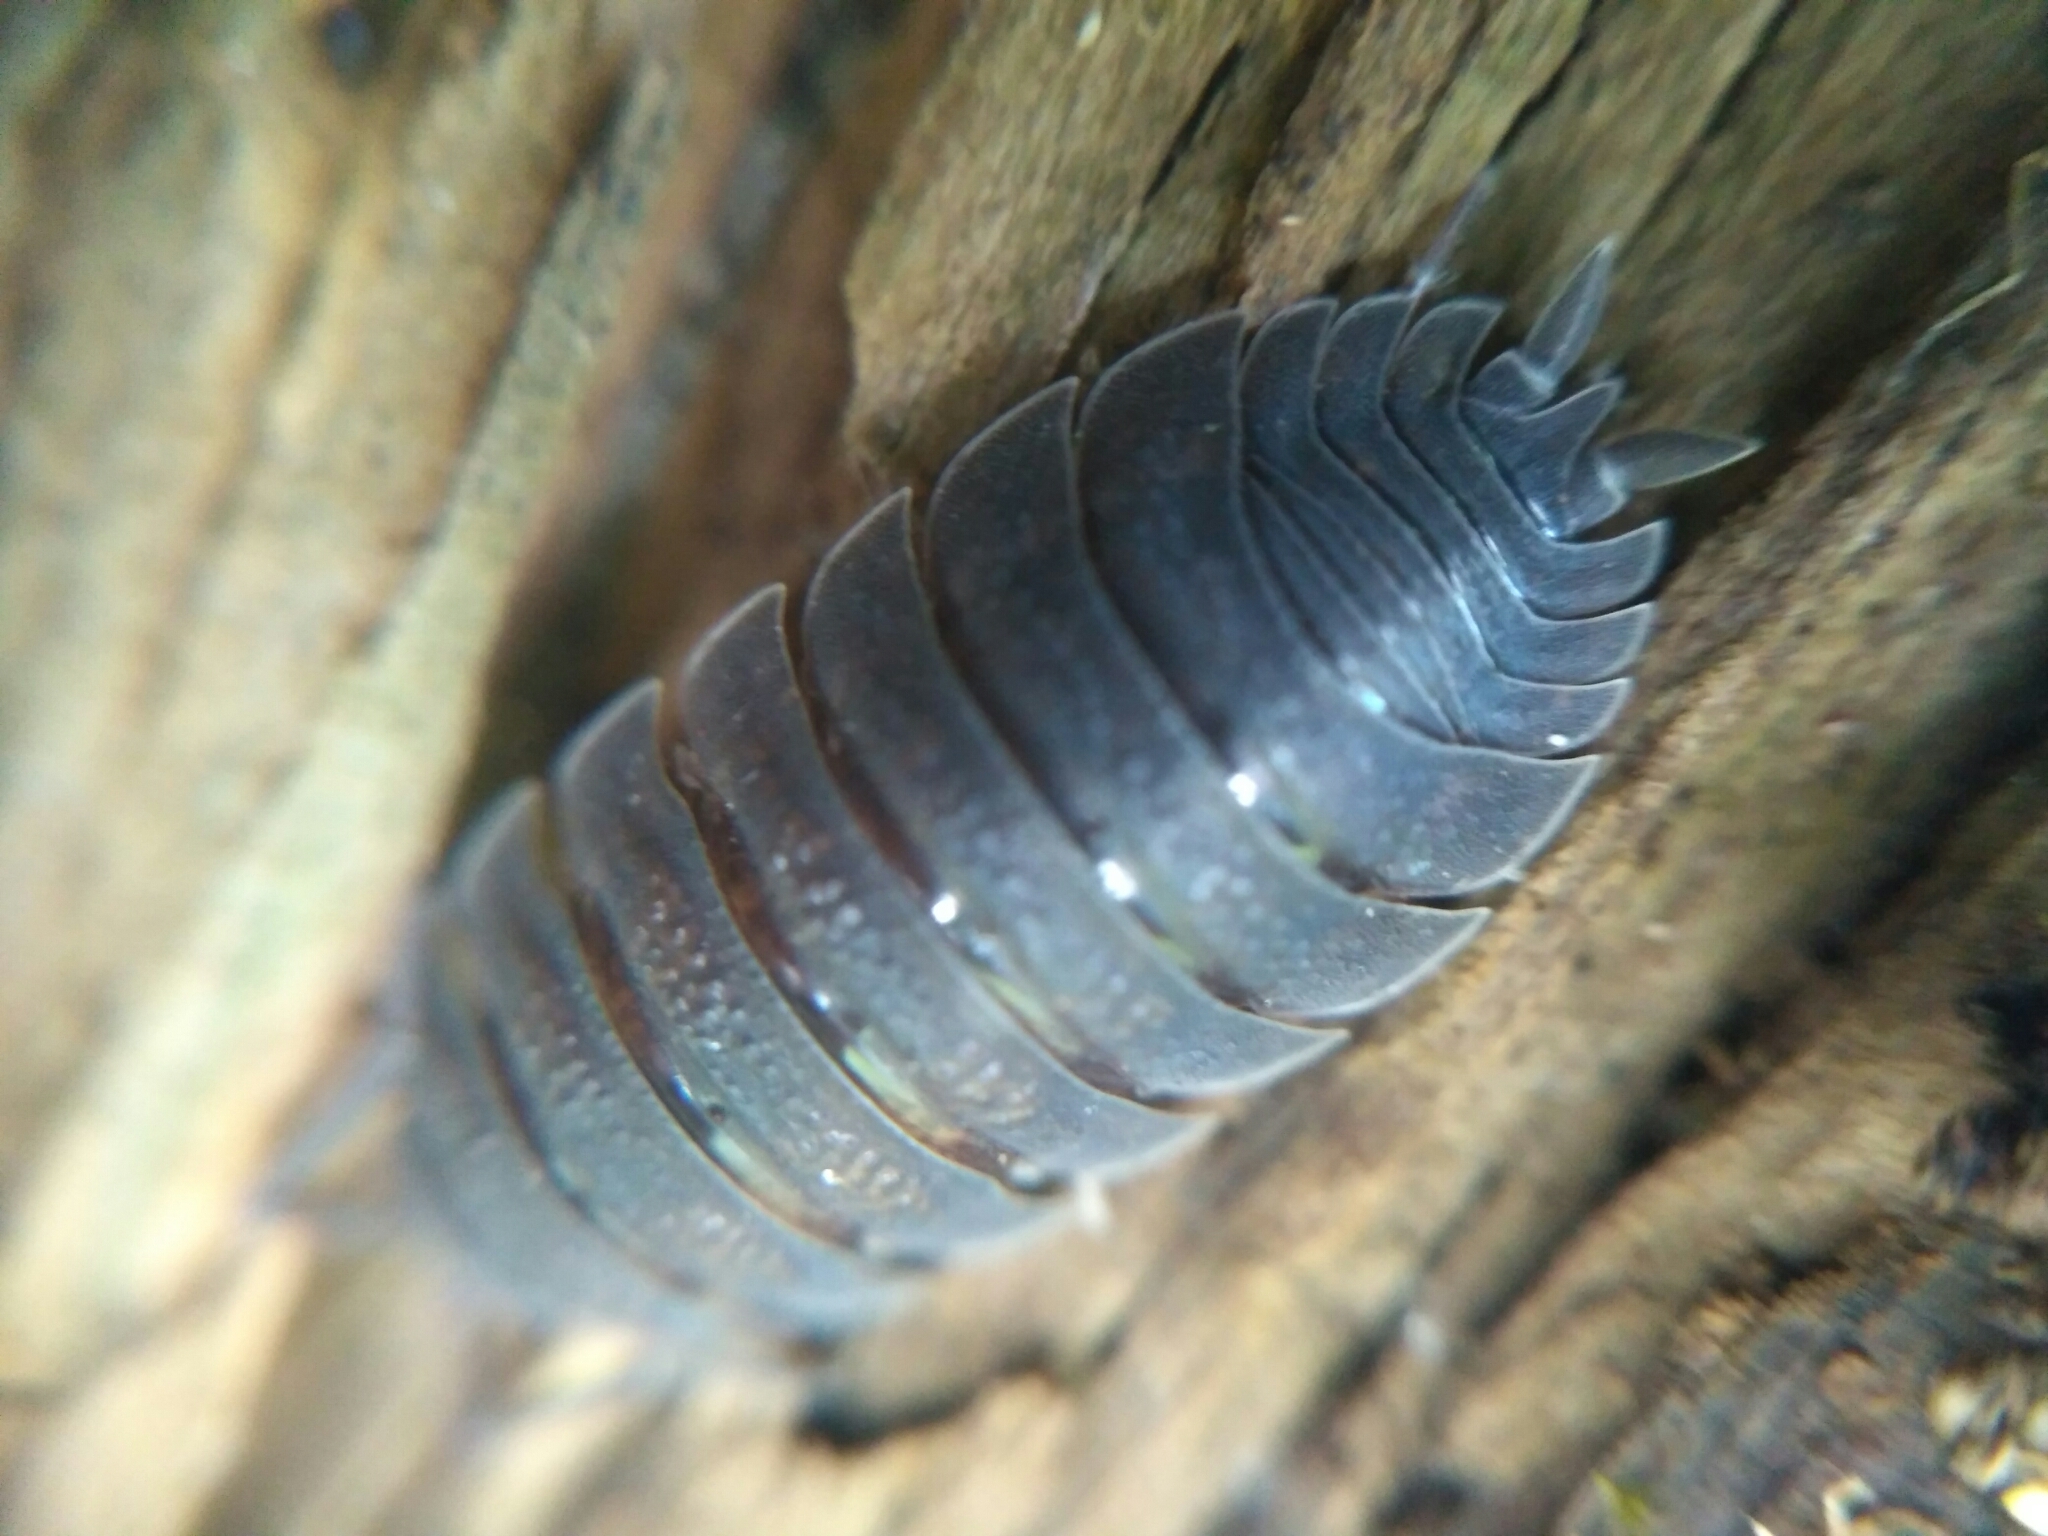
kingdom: Animalia
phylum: Arthropoda
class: Malacostraca
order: Isopoda
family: Porcellionidae
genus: Porcellio
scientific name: Porcellio scaber
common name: Common rough woodlouse
